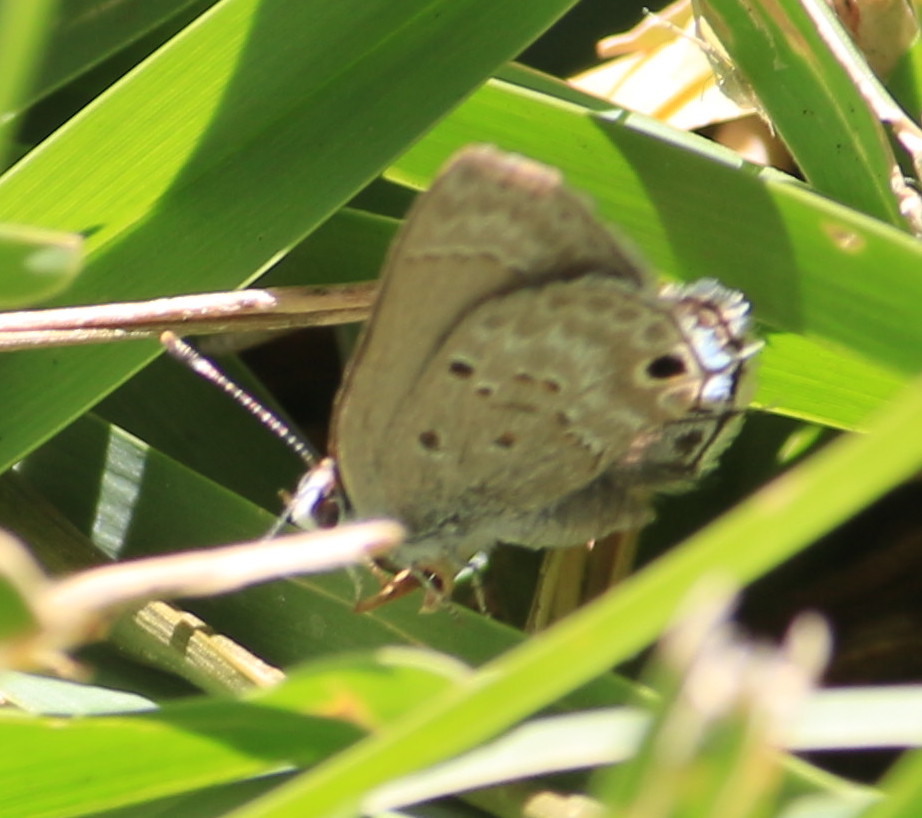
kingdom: Animalia
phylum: Arthropoda
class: Insecta
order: Lepidoptera
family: Lycaenidae
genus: Callicista
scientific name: Callicista columella
